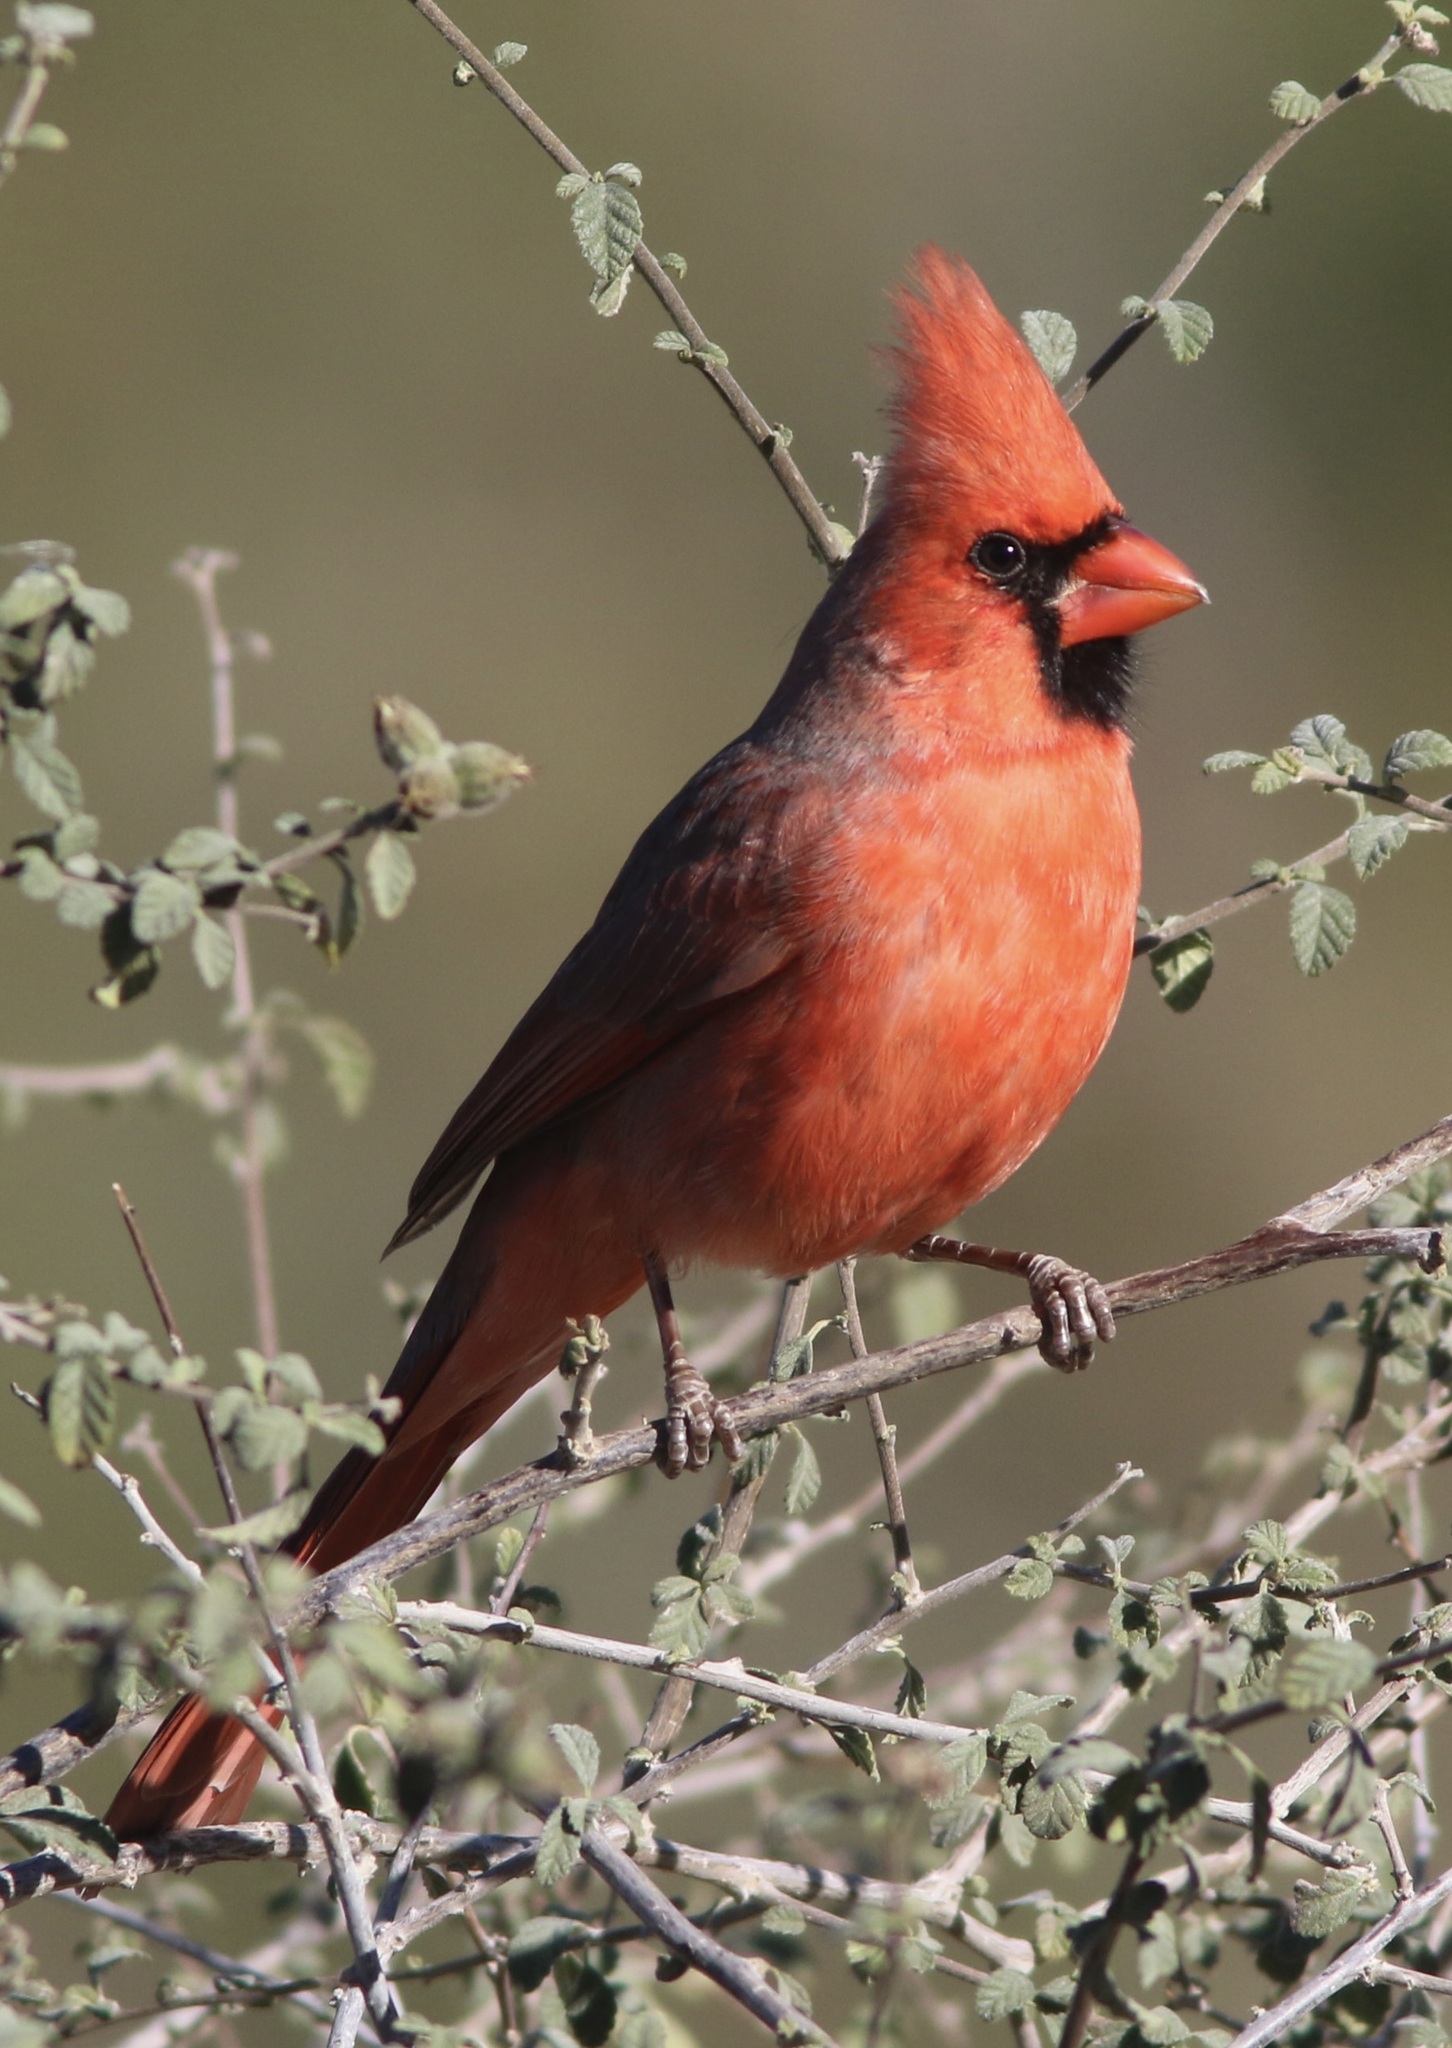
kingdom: Animalia
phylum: Chordata
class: Aves
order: Passeriformes
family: Cardinalidae
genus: Cardinalis
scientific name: Cardinalis cardinalis
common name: Northern cardinal
